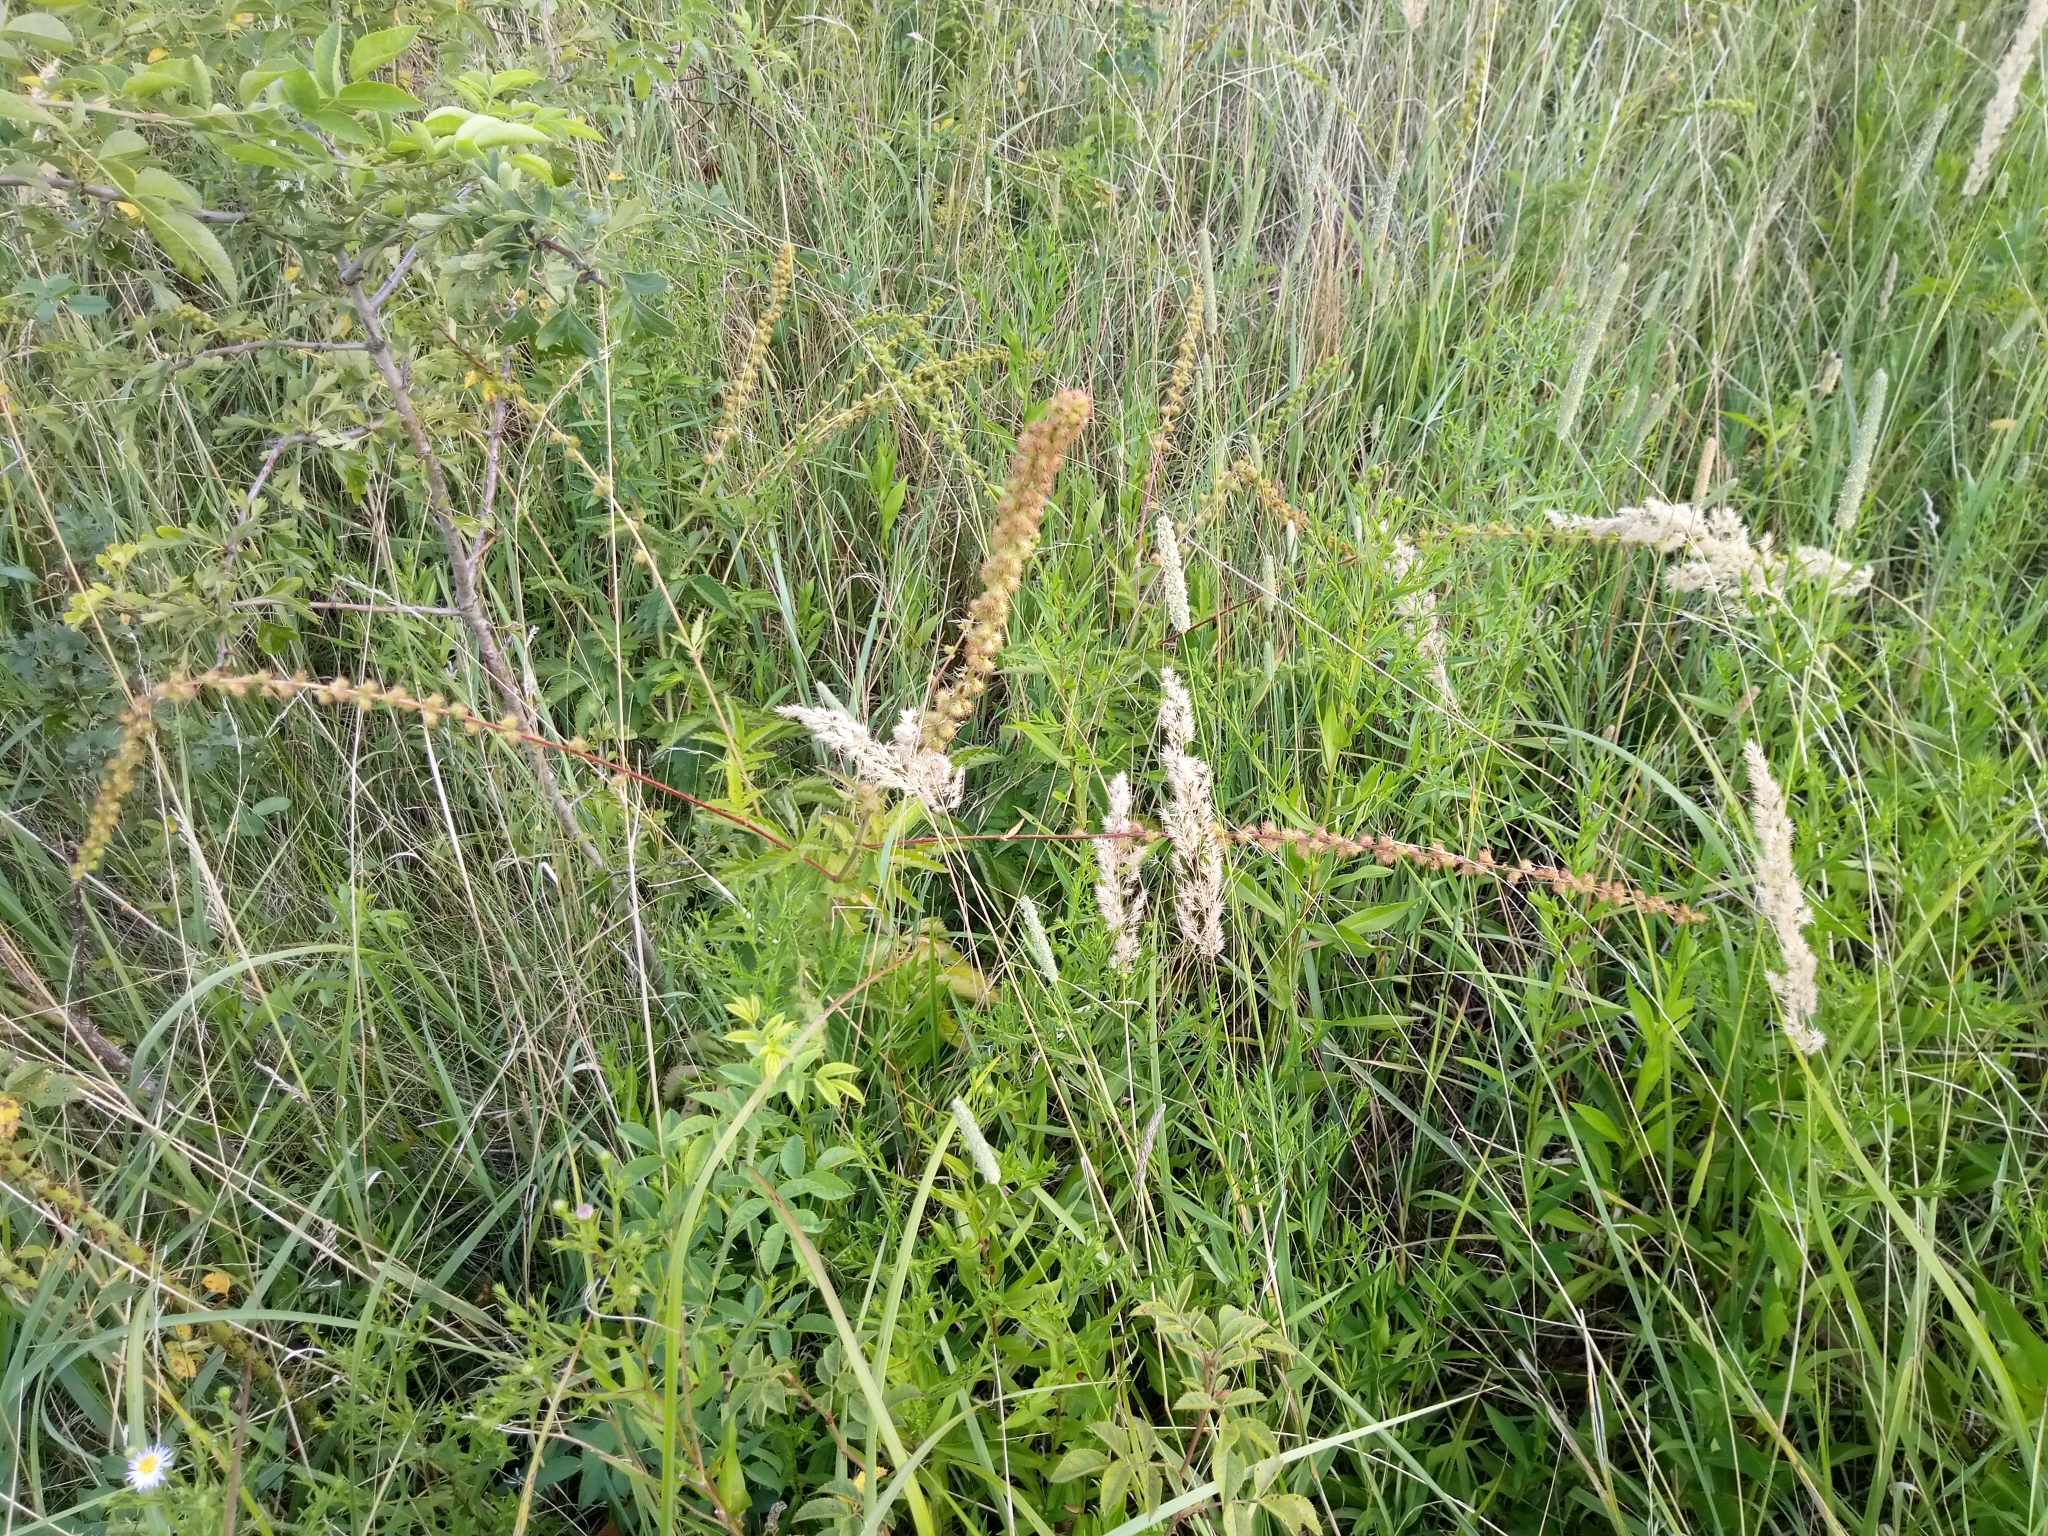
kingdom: Plantae
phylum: Tracheophyta
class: Magnoliopsida
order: Rosales
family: Rosaceae
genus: Agrimonia
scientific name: Agrimonia procera
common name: Fragrant agrimony
